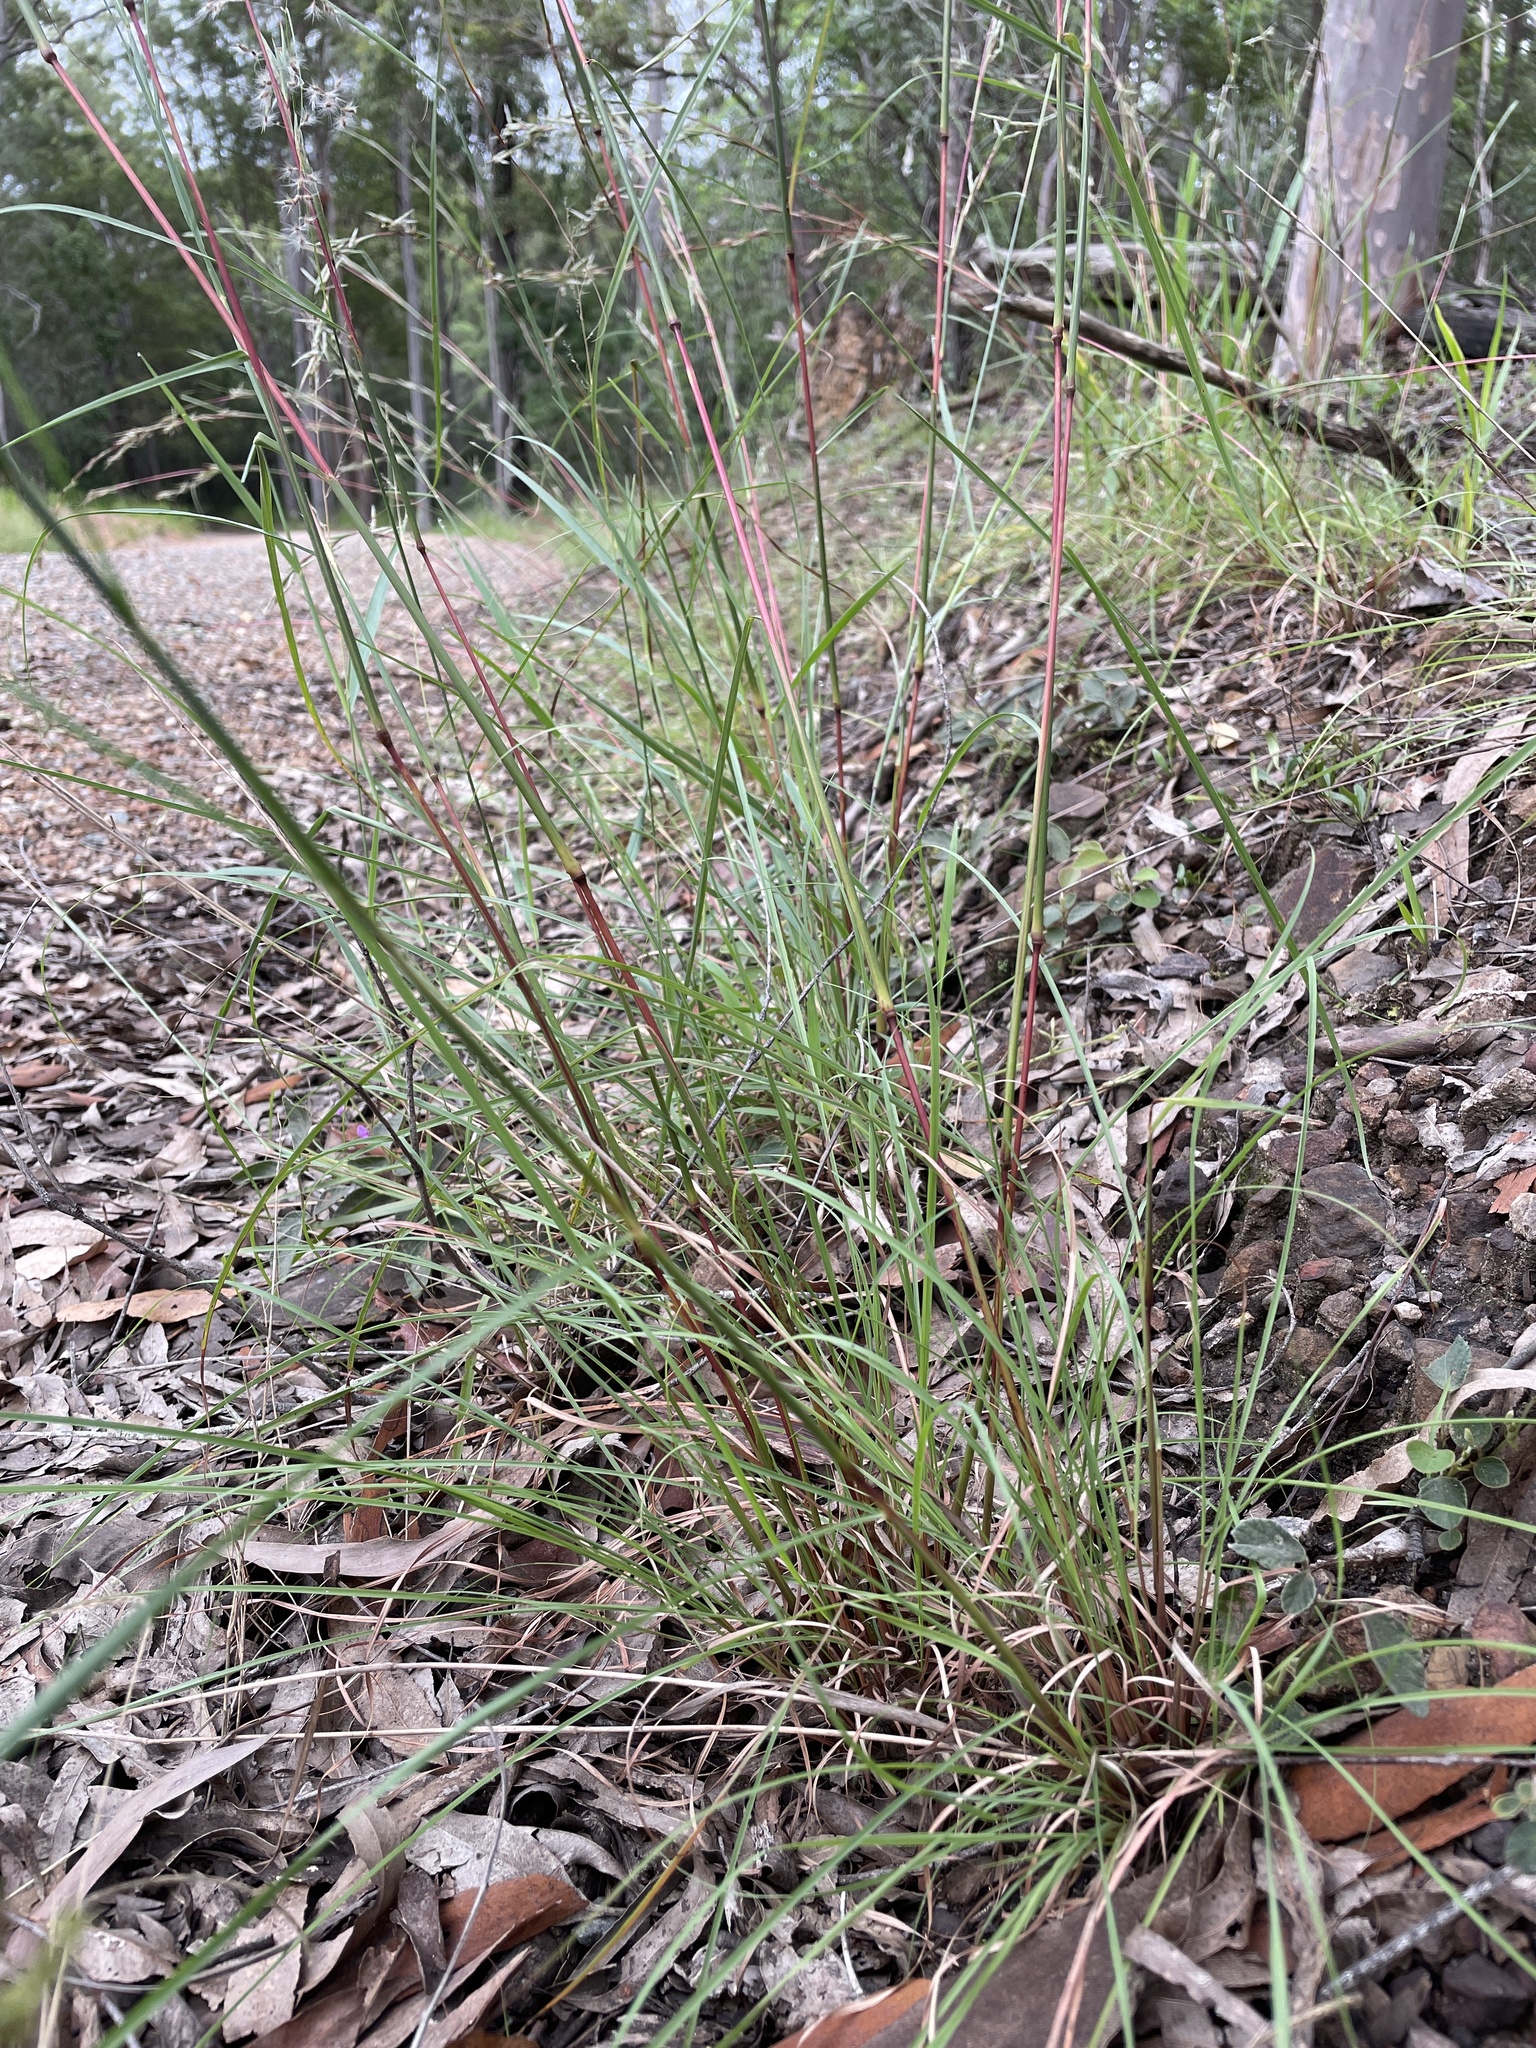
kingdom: Plantae
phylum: Tracheophyta
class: Liliopsida
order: Poales
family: Poaceae
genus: Cymbopogon
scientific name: Cymbopogon refractus
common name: Barbwire grass
